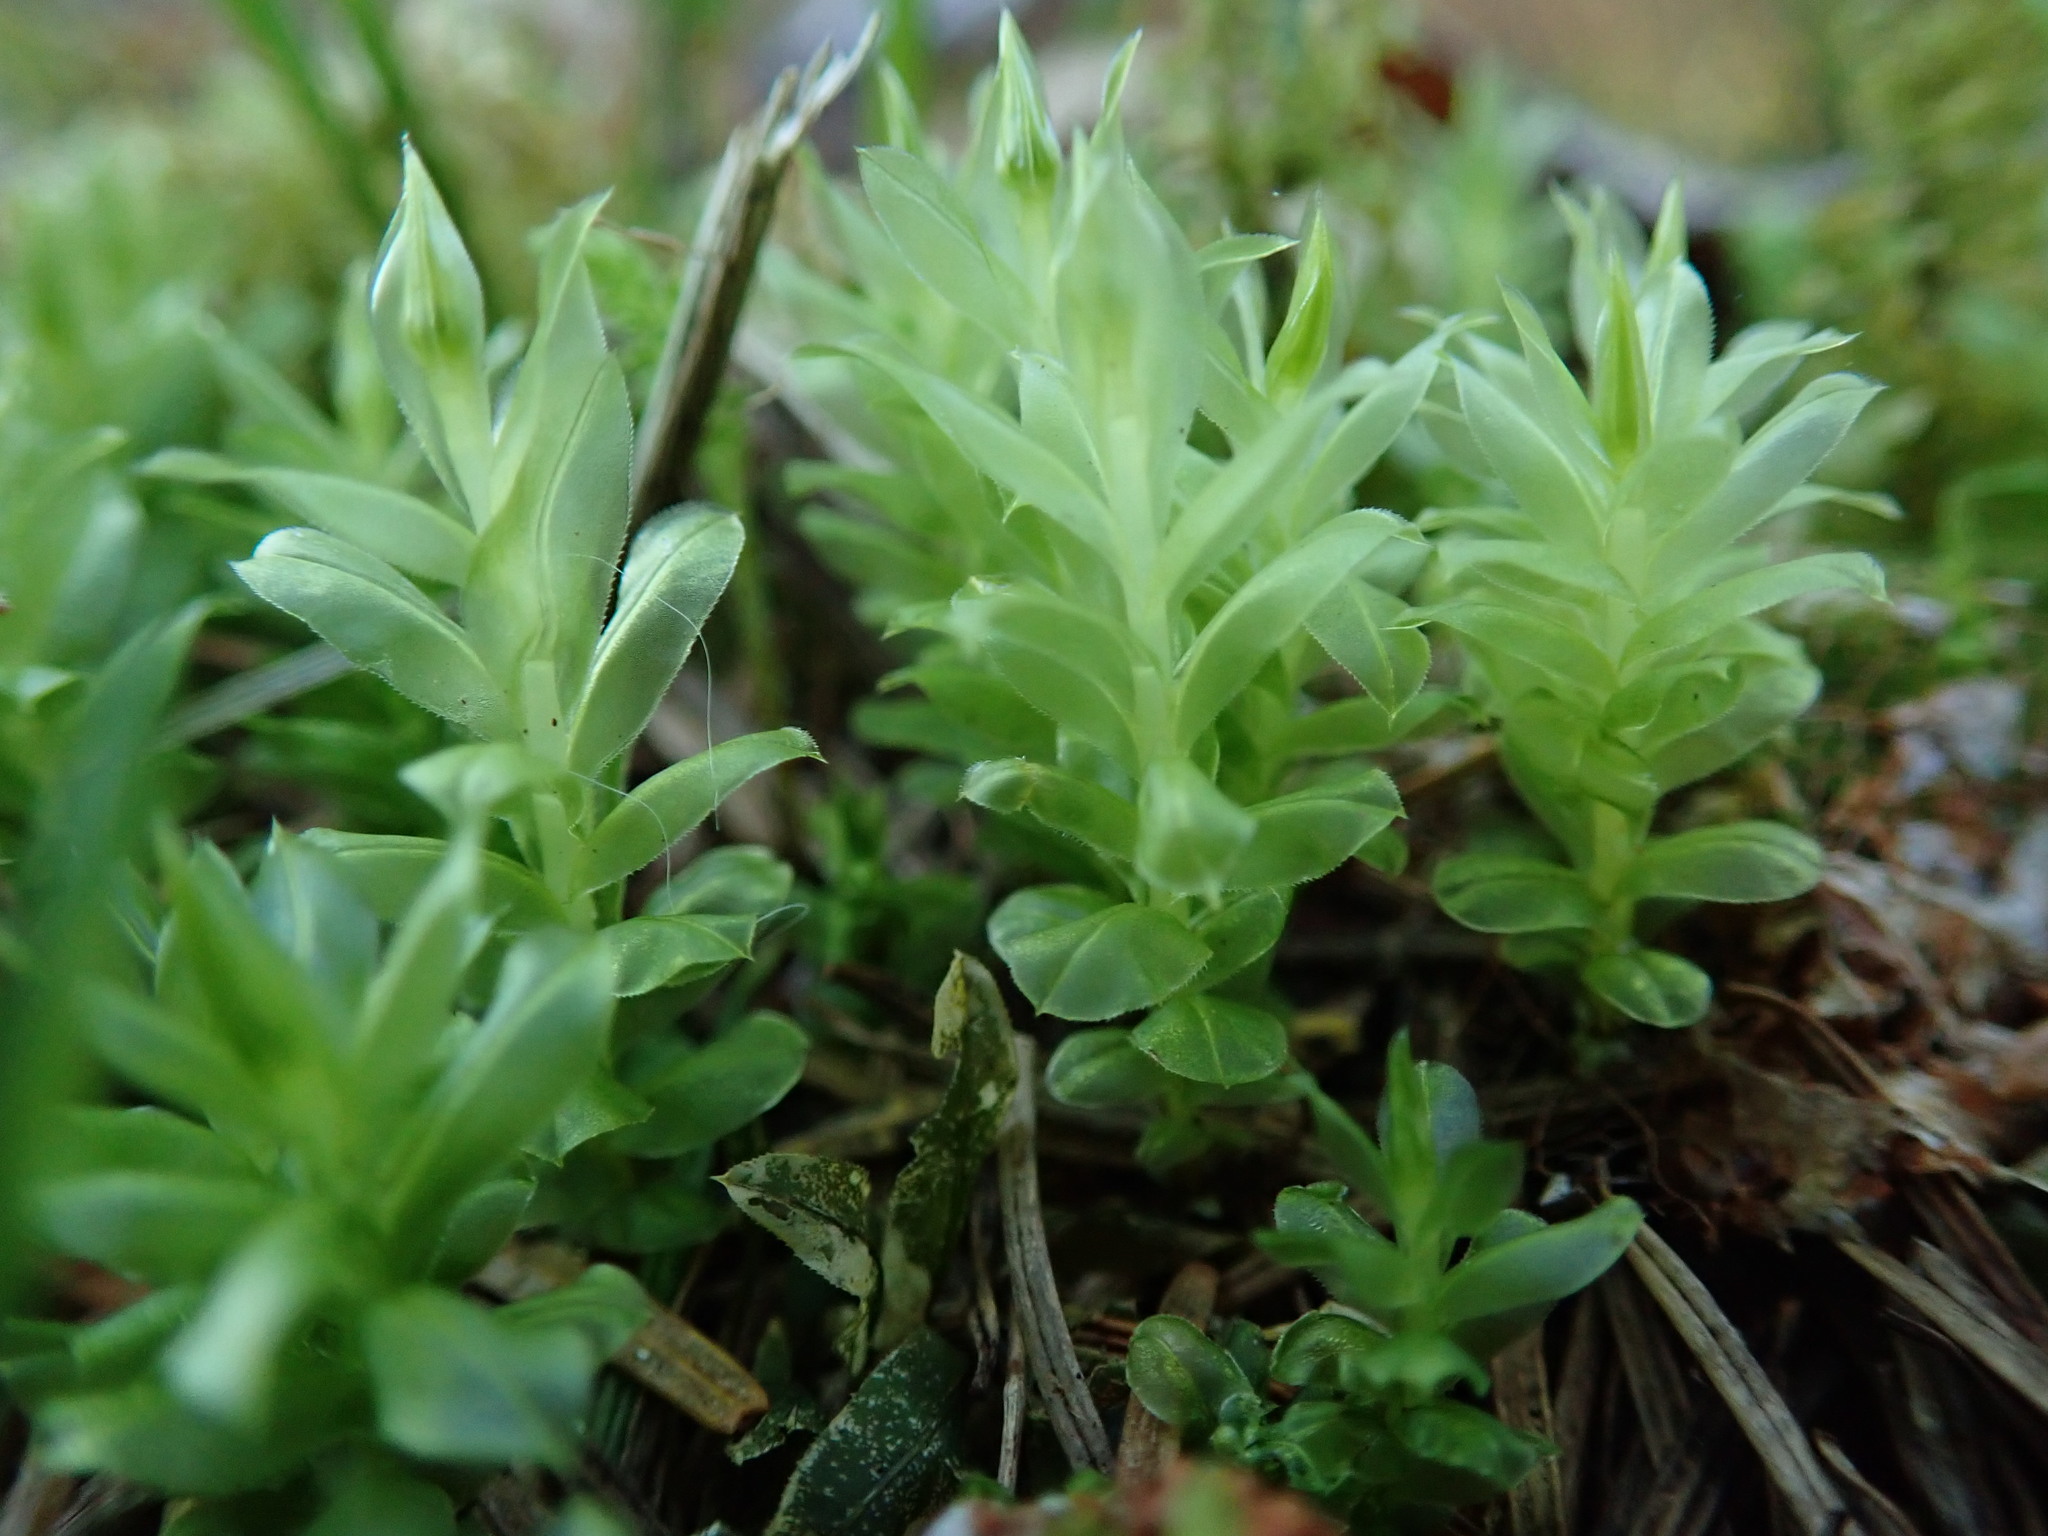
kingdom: Plantae
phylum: Bryophyta
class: Bryopsida
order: Bryales
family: Mniaceae
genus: Plagiomnium
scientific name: Plagiomnium insigne
